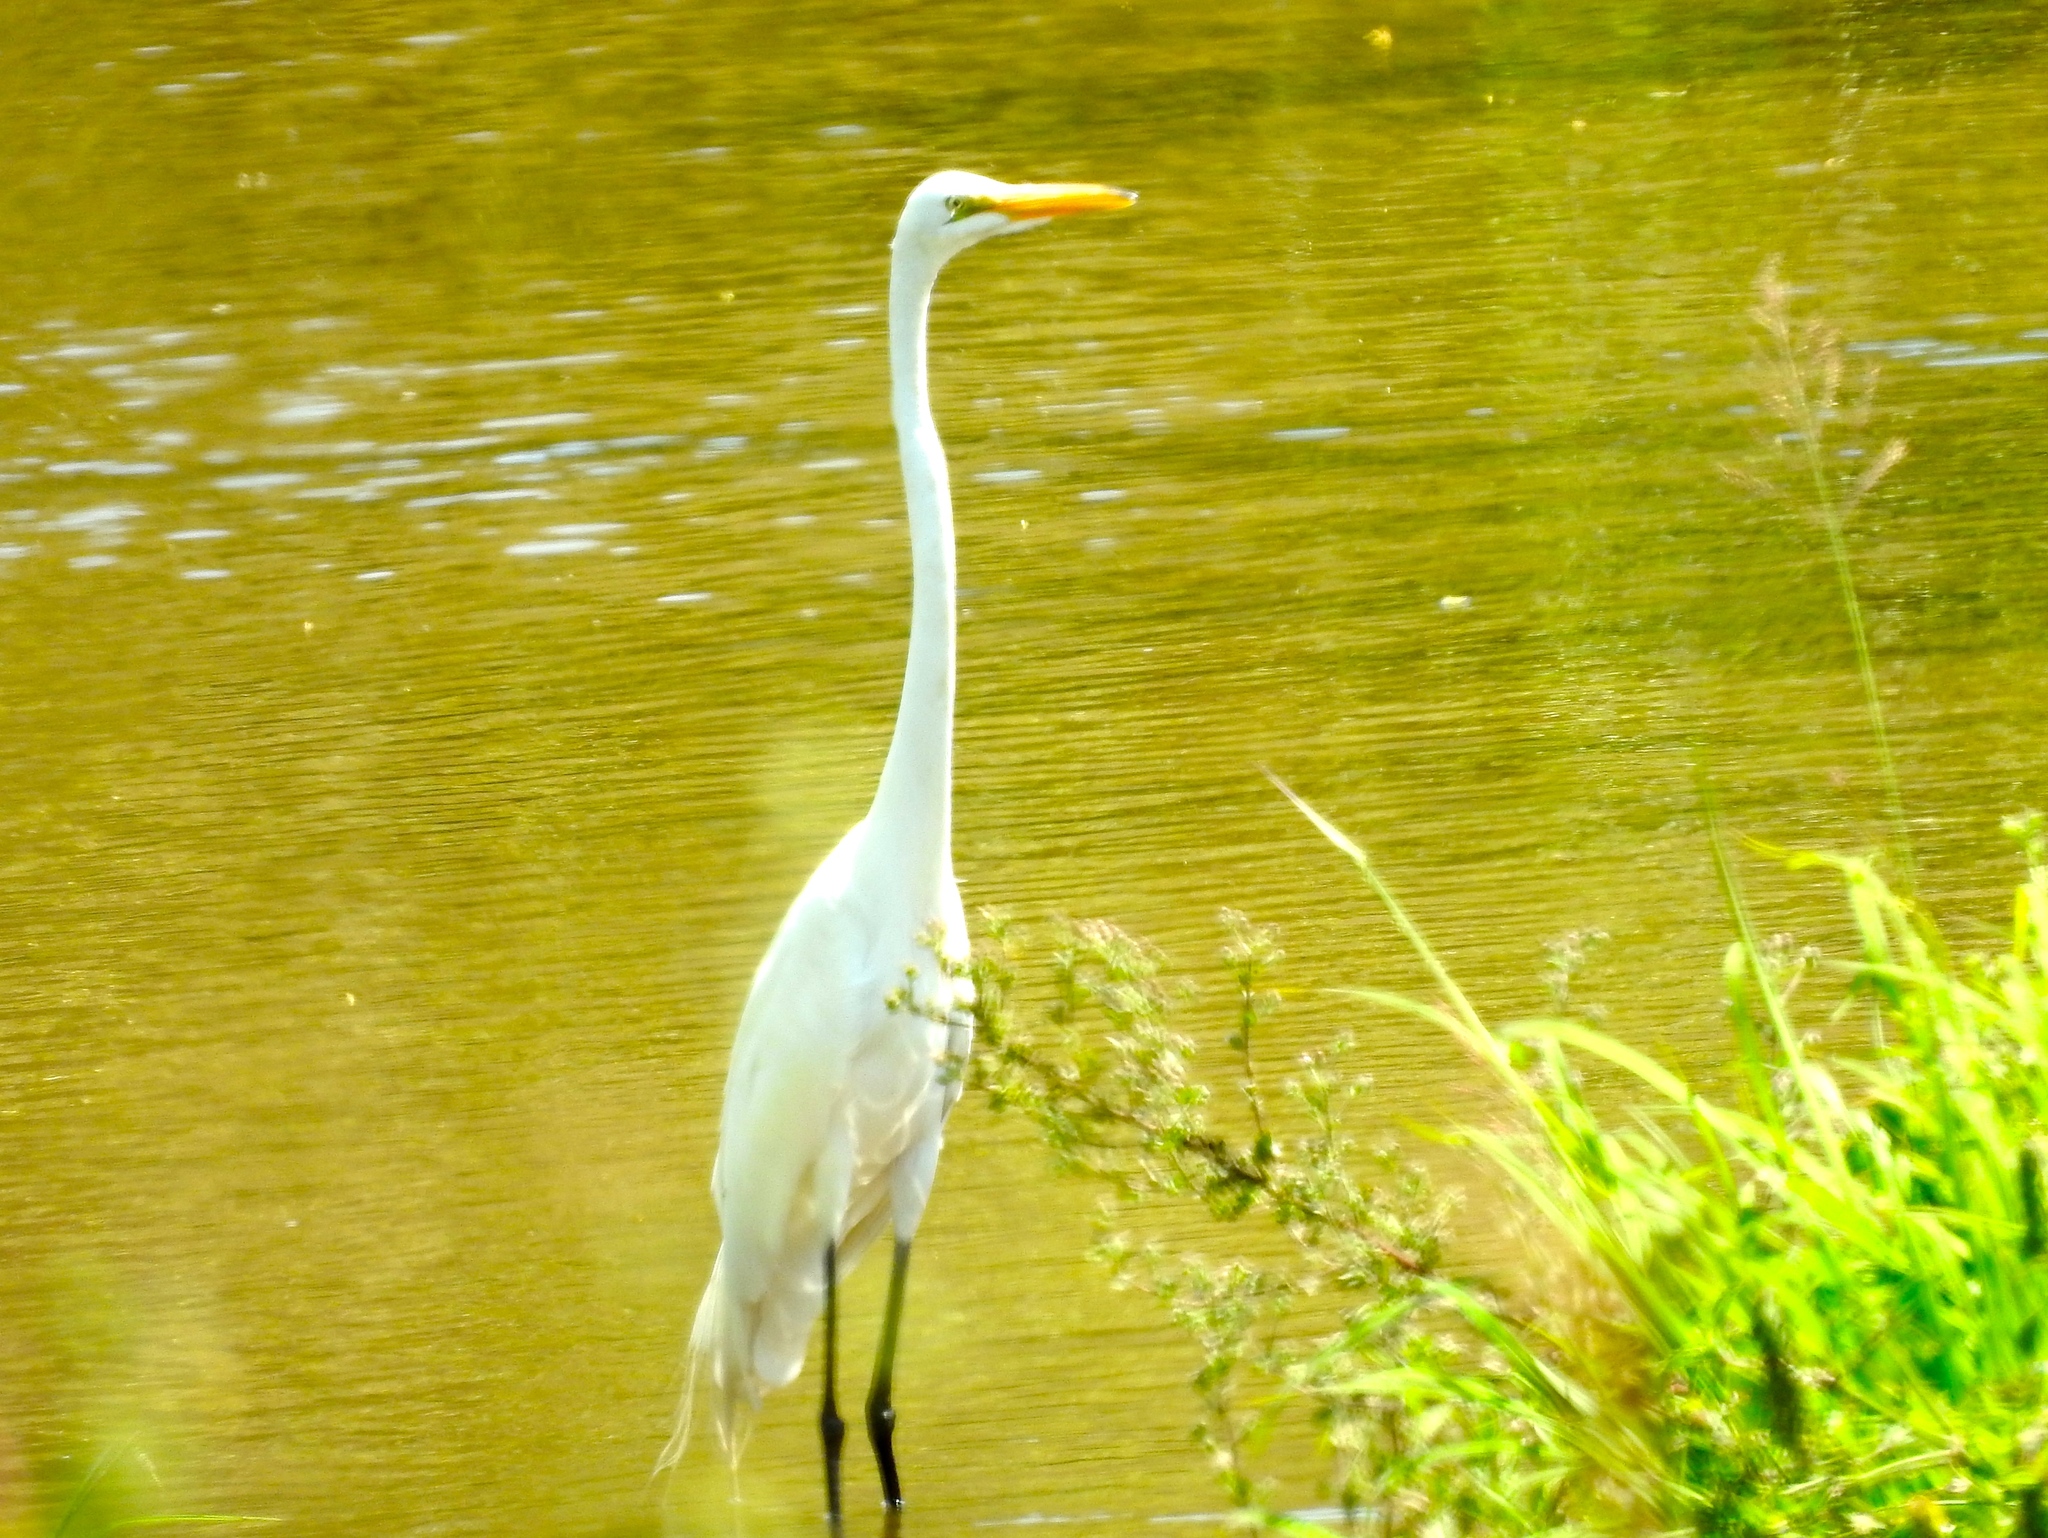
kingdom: Animalia
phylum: Chordata
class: Aves
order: Pelecaniformes
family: Ardeidae
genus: Ardea
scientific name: Ardea alba
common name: Great egret
